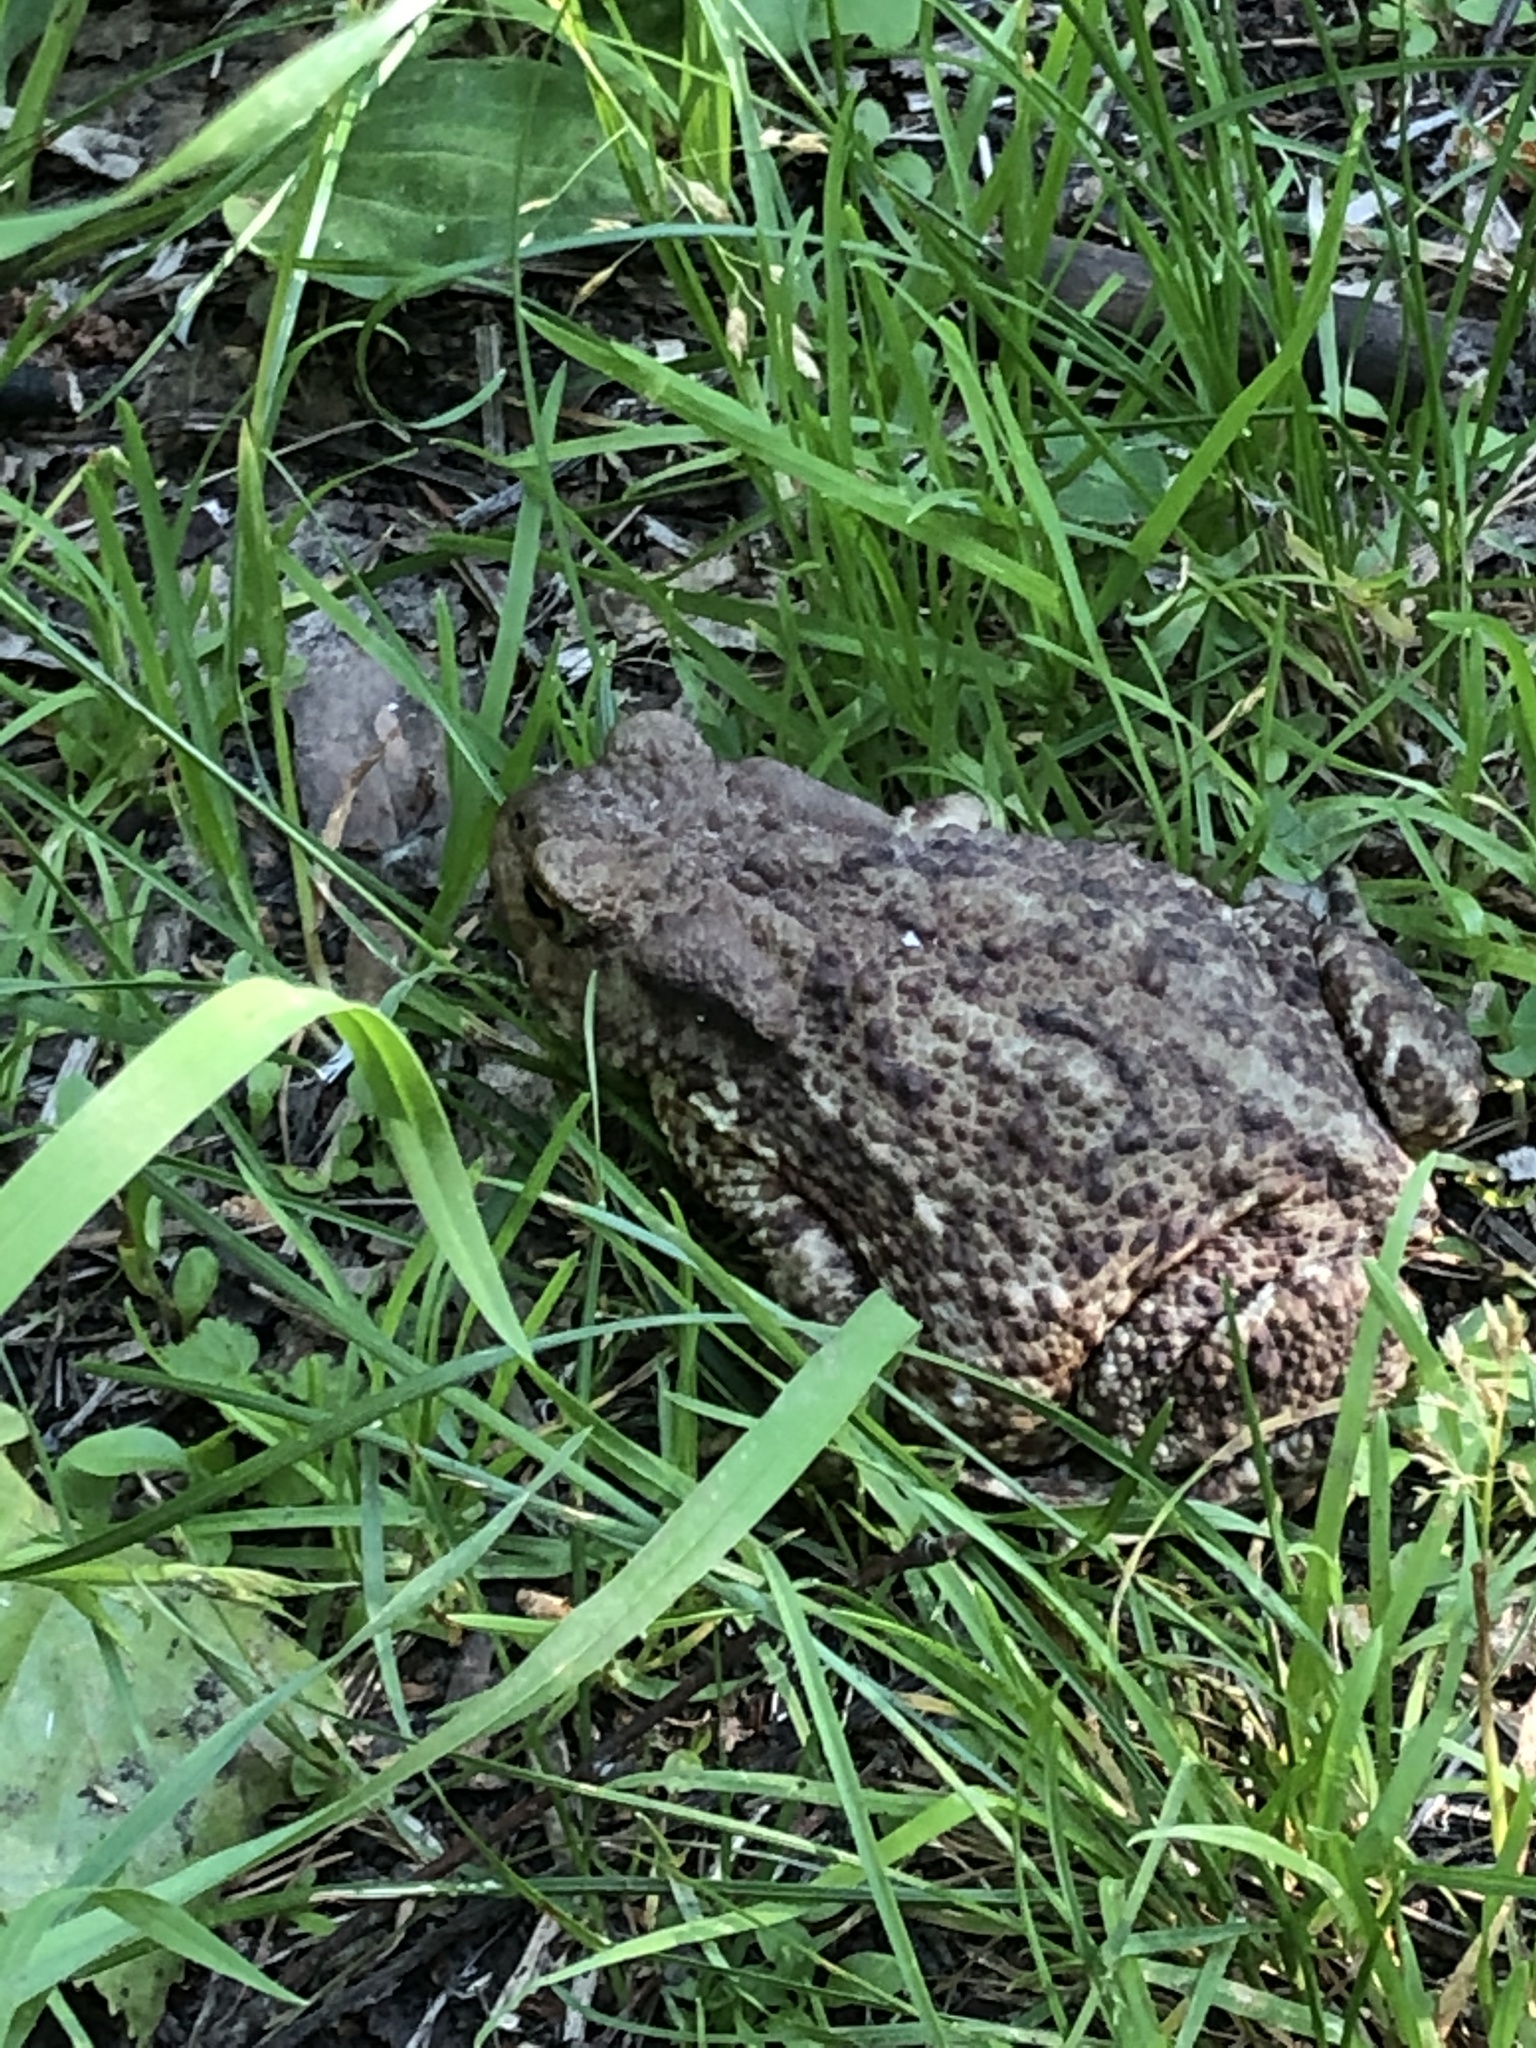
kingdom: Animalia
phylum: Chordata
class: Amphibia
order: Anura
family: Bufonidae
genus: Bufo
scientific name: Bufo bufo
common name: Common toad
